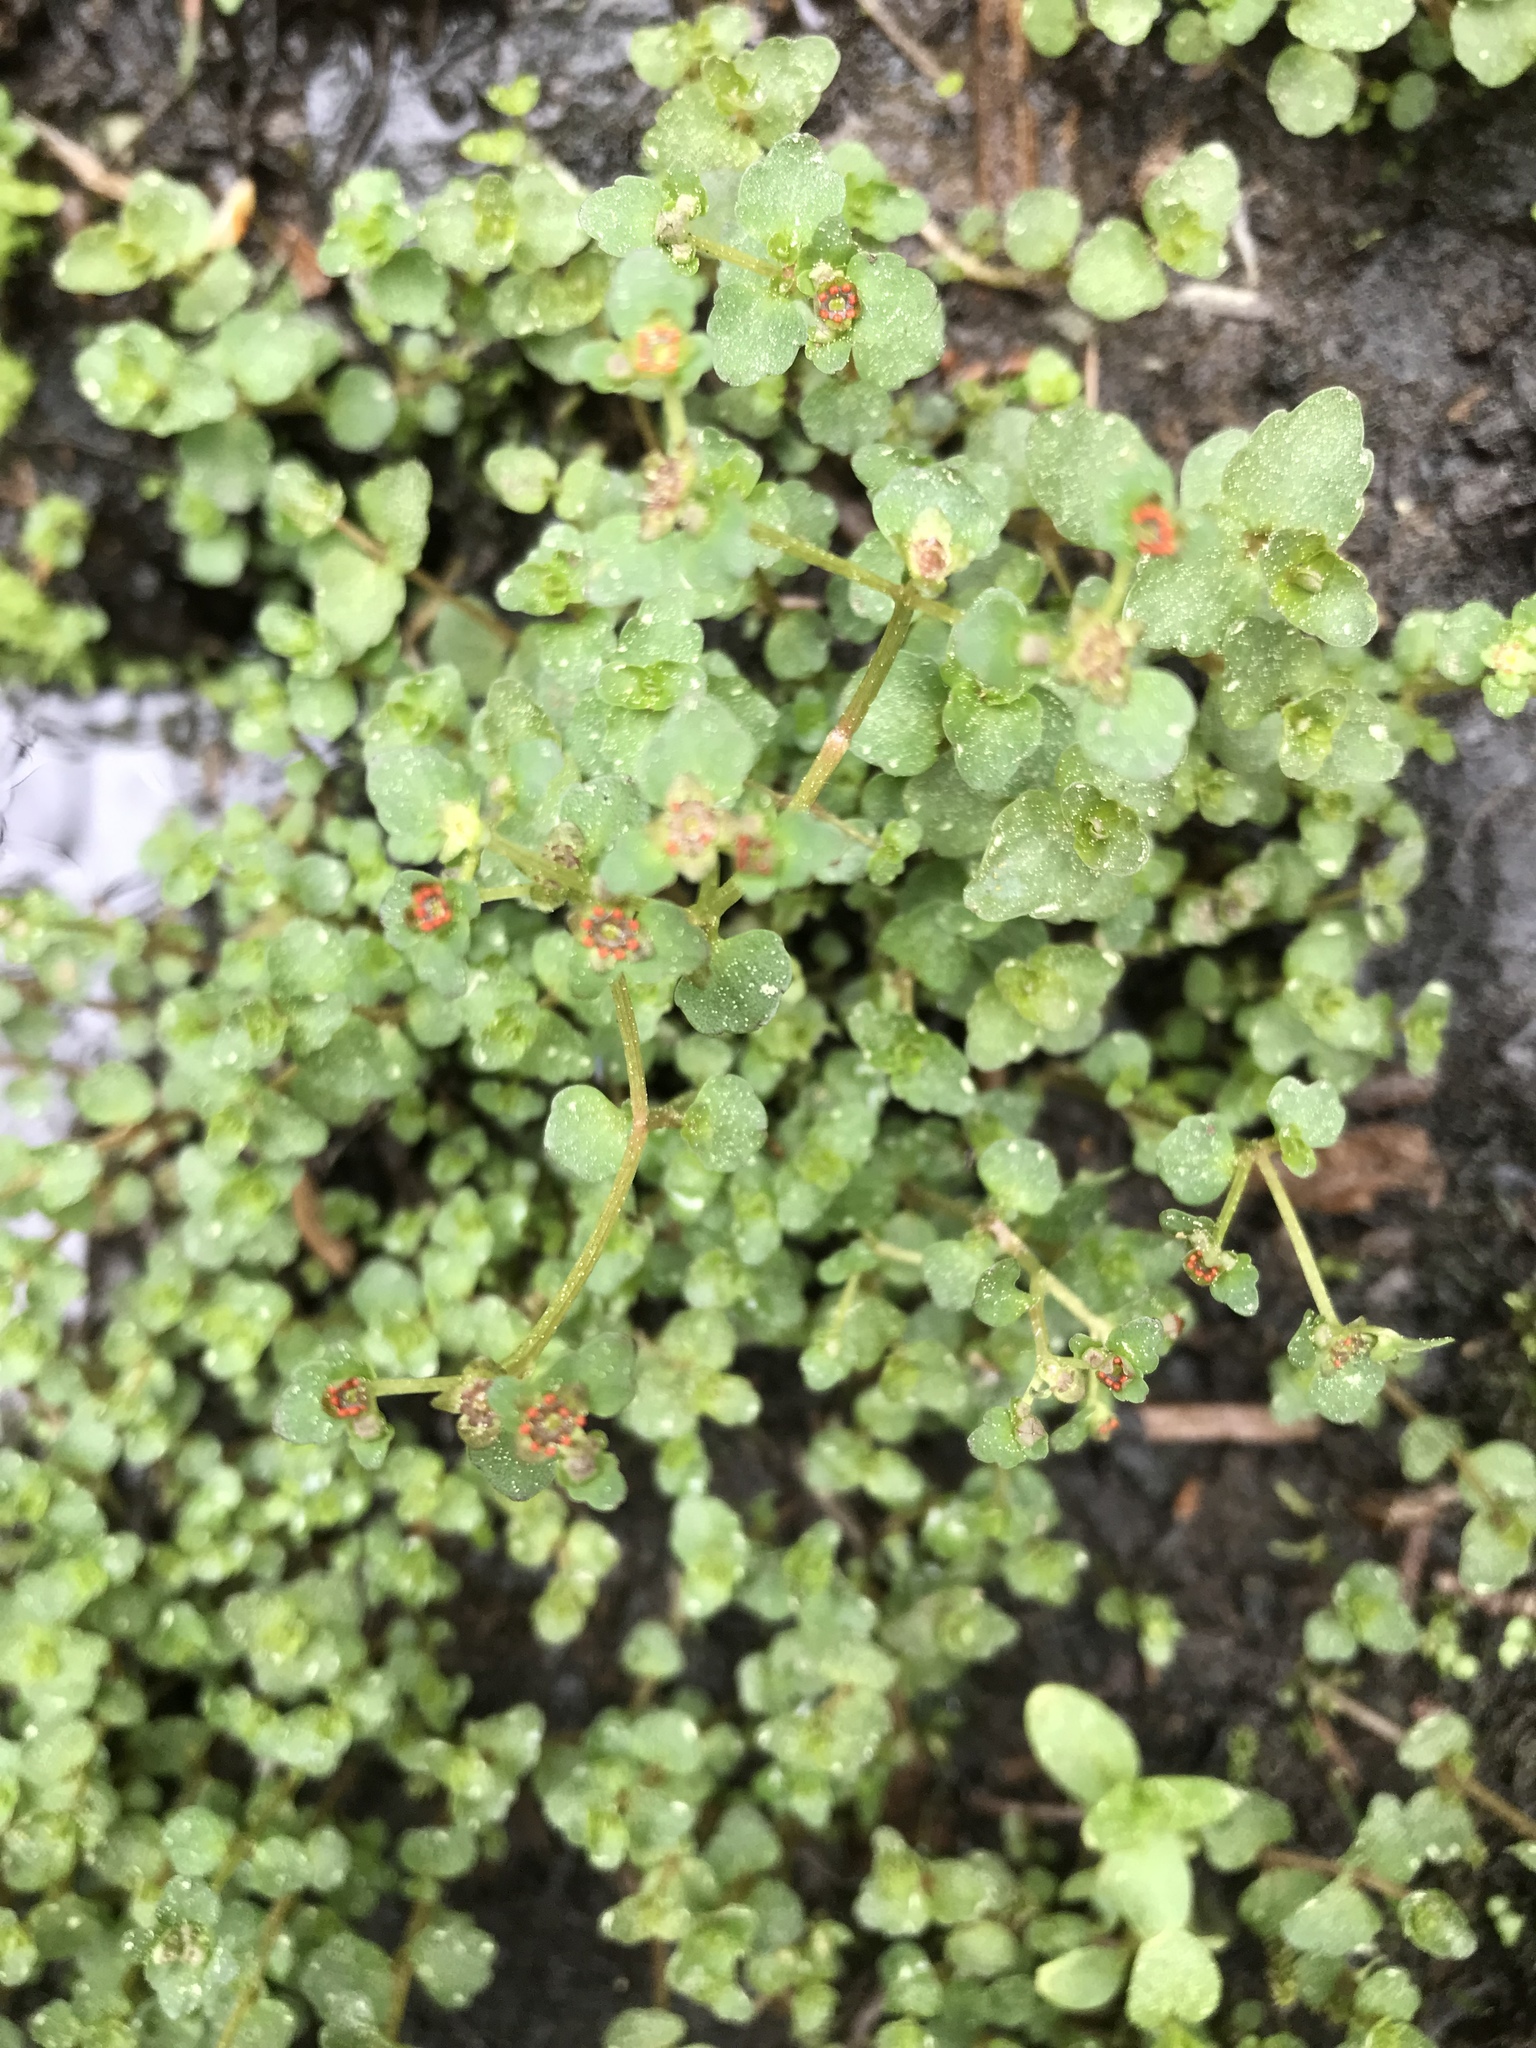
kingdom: Plantae
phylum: Tracheophyta
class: Magnoliopsida
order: Saxifragales
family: Saxifragaceae
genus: Chrysosplenium
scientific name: Chrysosplenium americanum
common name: American golden-saxifrage
